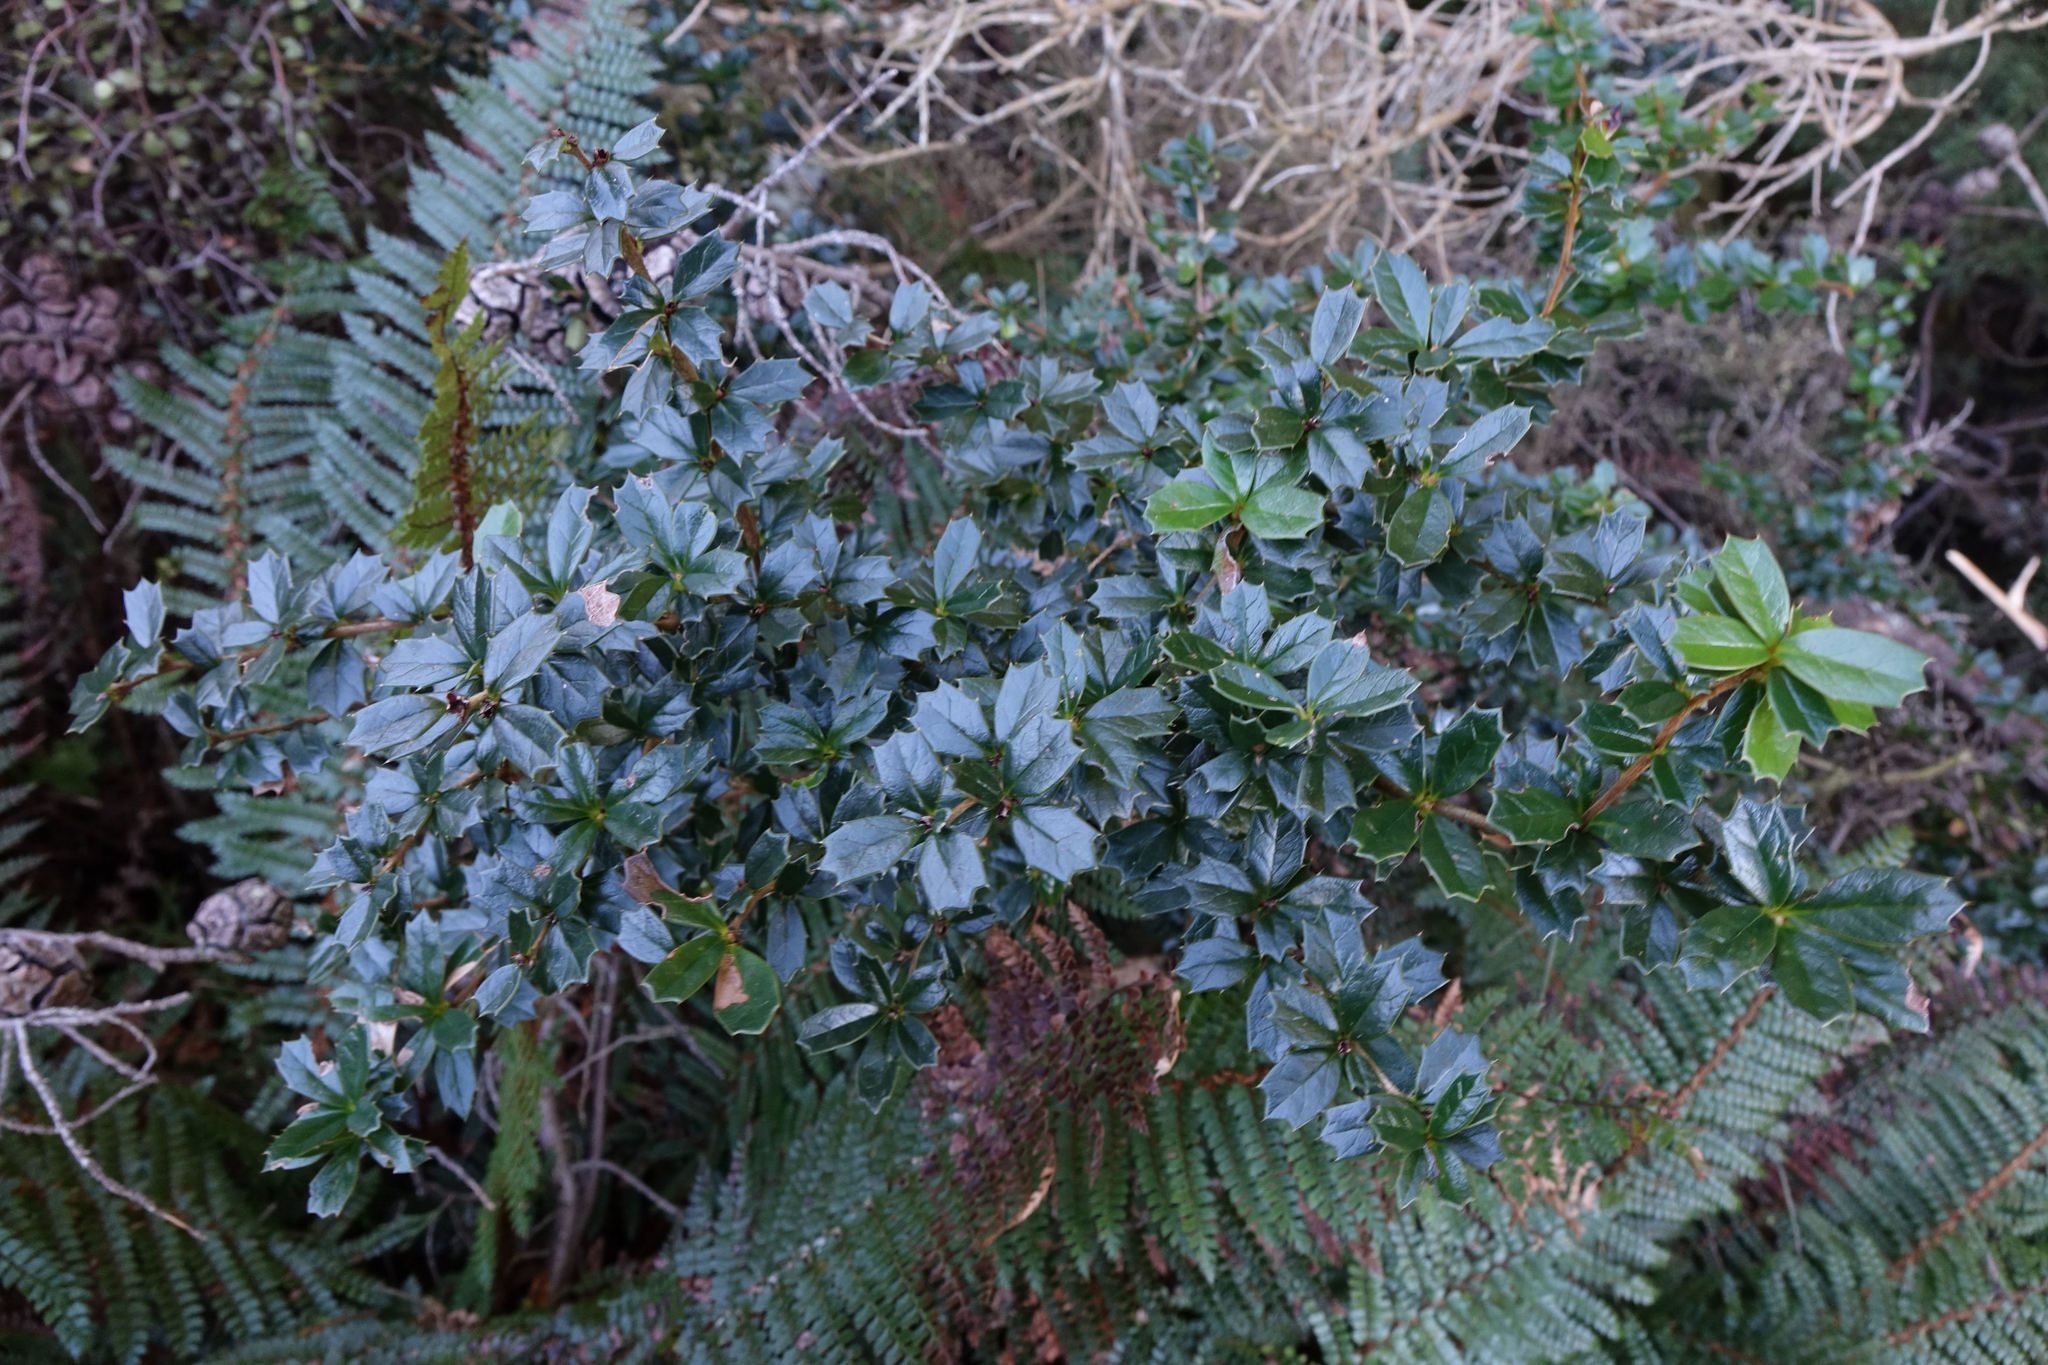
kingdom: Plantae
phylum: Tracheophyta
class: Magnoliopsida
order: Ranunculales
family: Berberidaceae
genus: Berberis
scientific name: Berberis darwinii
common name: Darwin's barberry
